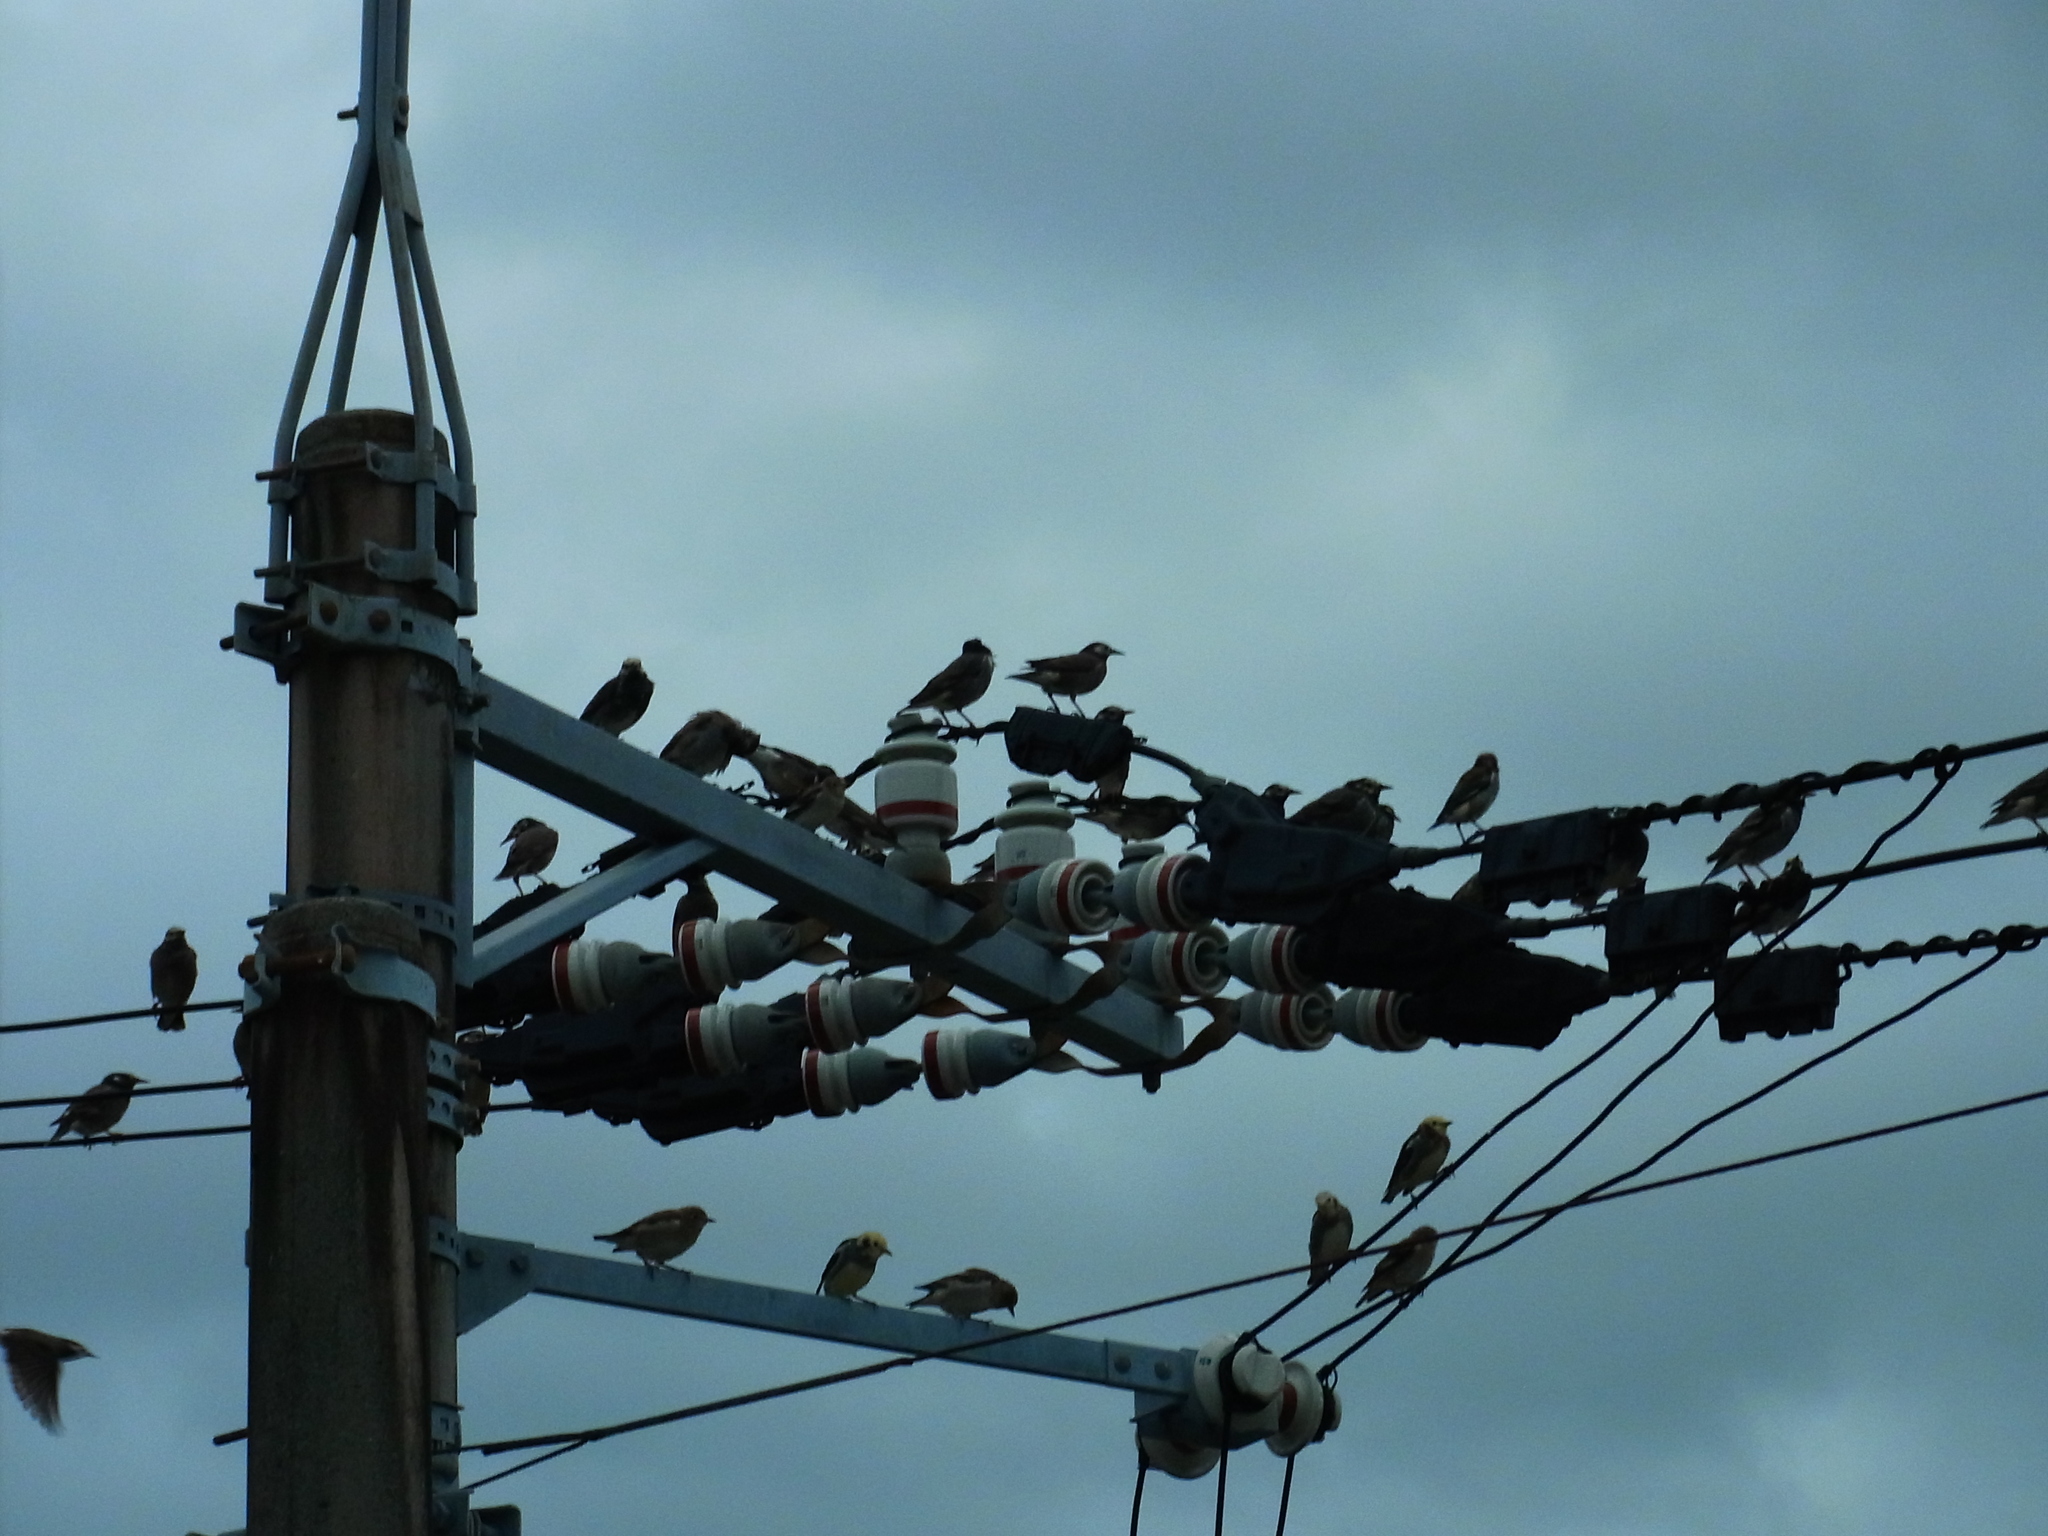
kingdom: Animalia
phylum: Chordata
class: Aves
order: Passeriformes
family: Sturnidae
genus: Spodiopsar
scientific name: Spodiopsar cineraceus
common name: White-cheeked starling
